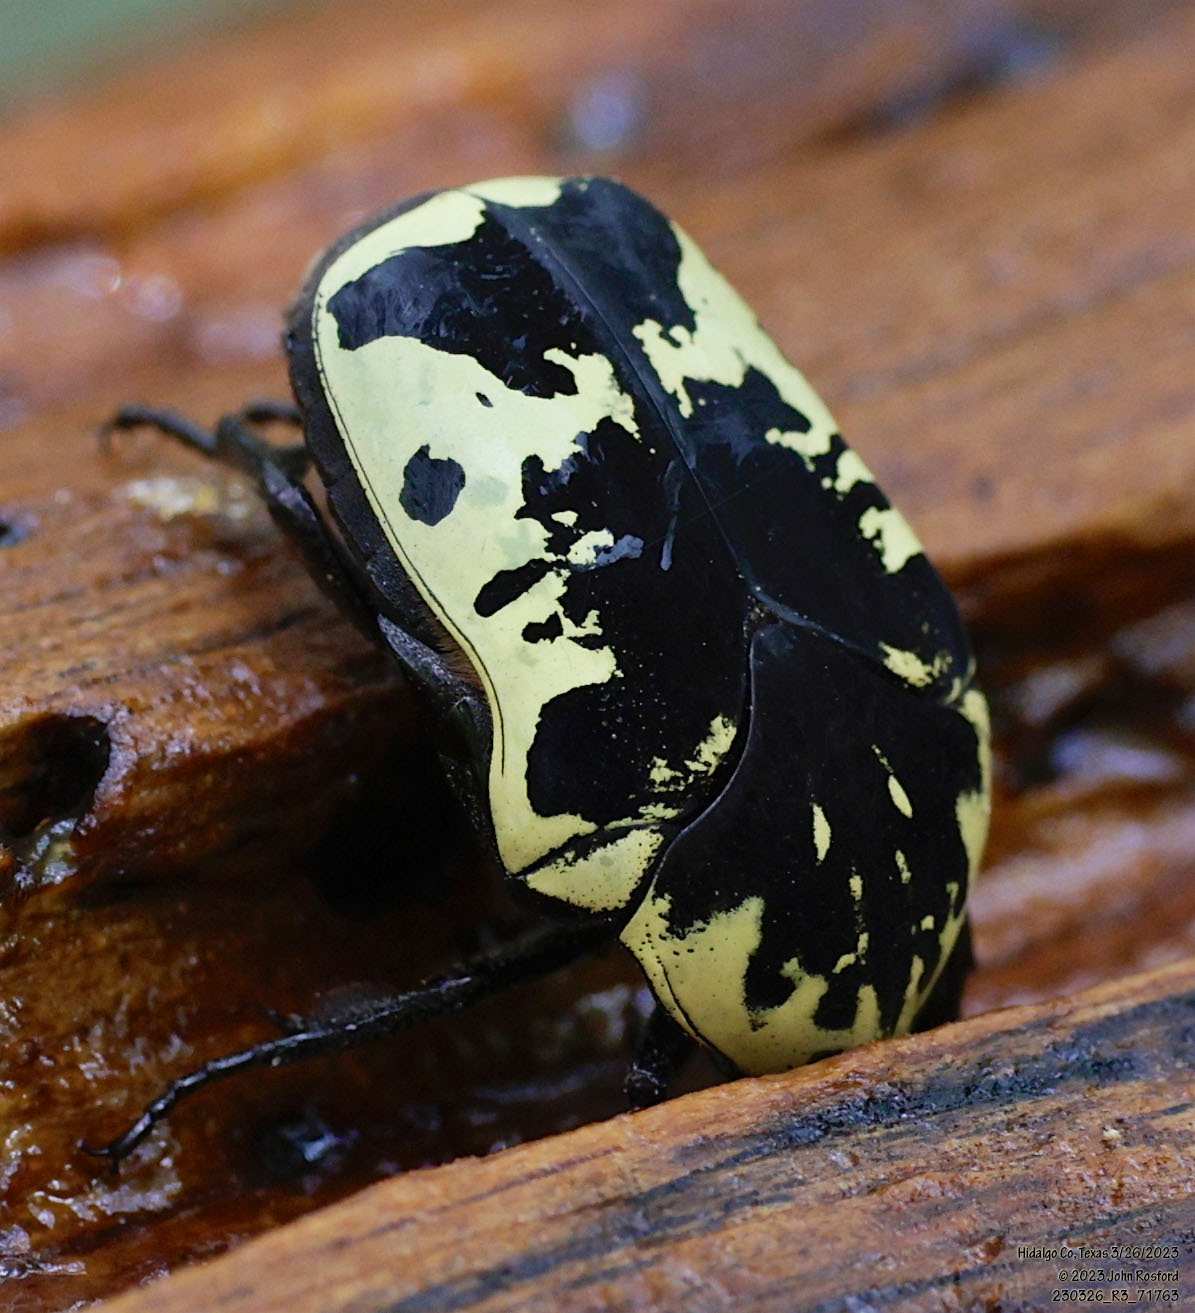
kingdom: Animalia
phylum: Arthropoda
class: Insecta
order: Coleoptera
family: Scarabaeidae
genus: Gymnetis
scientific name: Gymnetis thula
